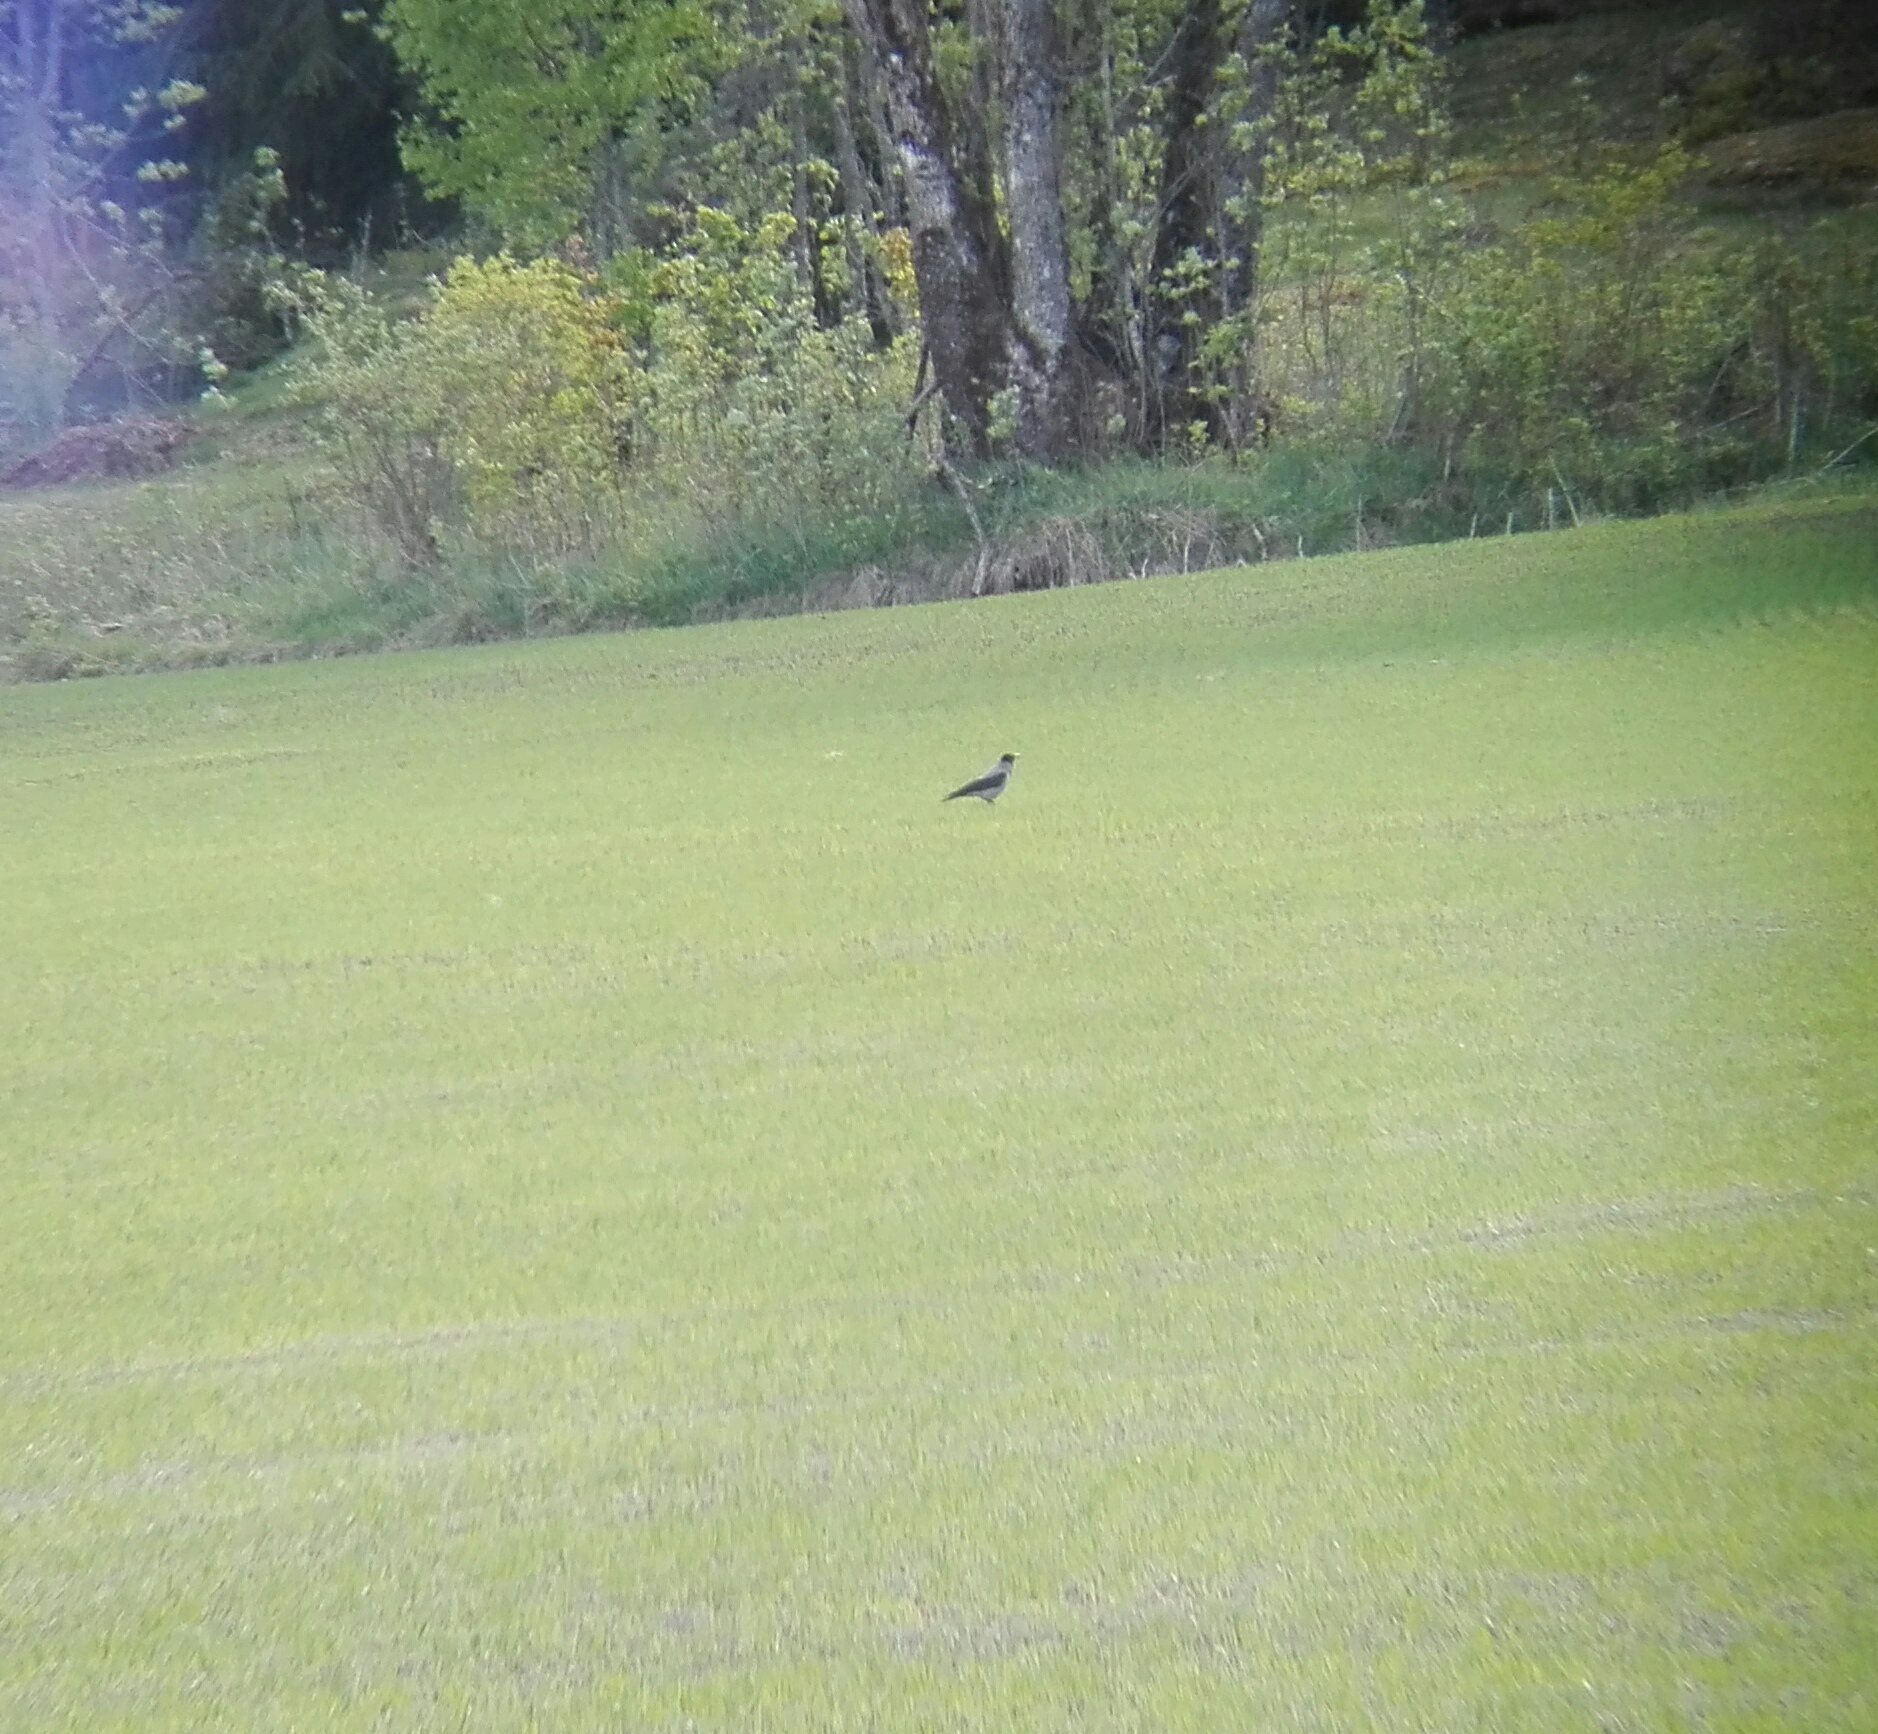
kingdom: Animalia
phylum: Chordata
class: Aves
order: Passeriformes
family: Corvidae
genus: Corvus
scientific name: Corvus cornix
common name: Hooded crow
